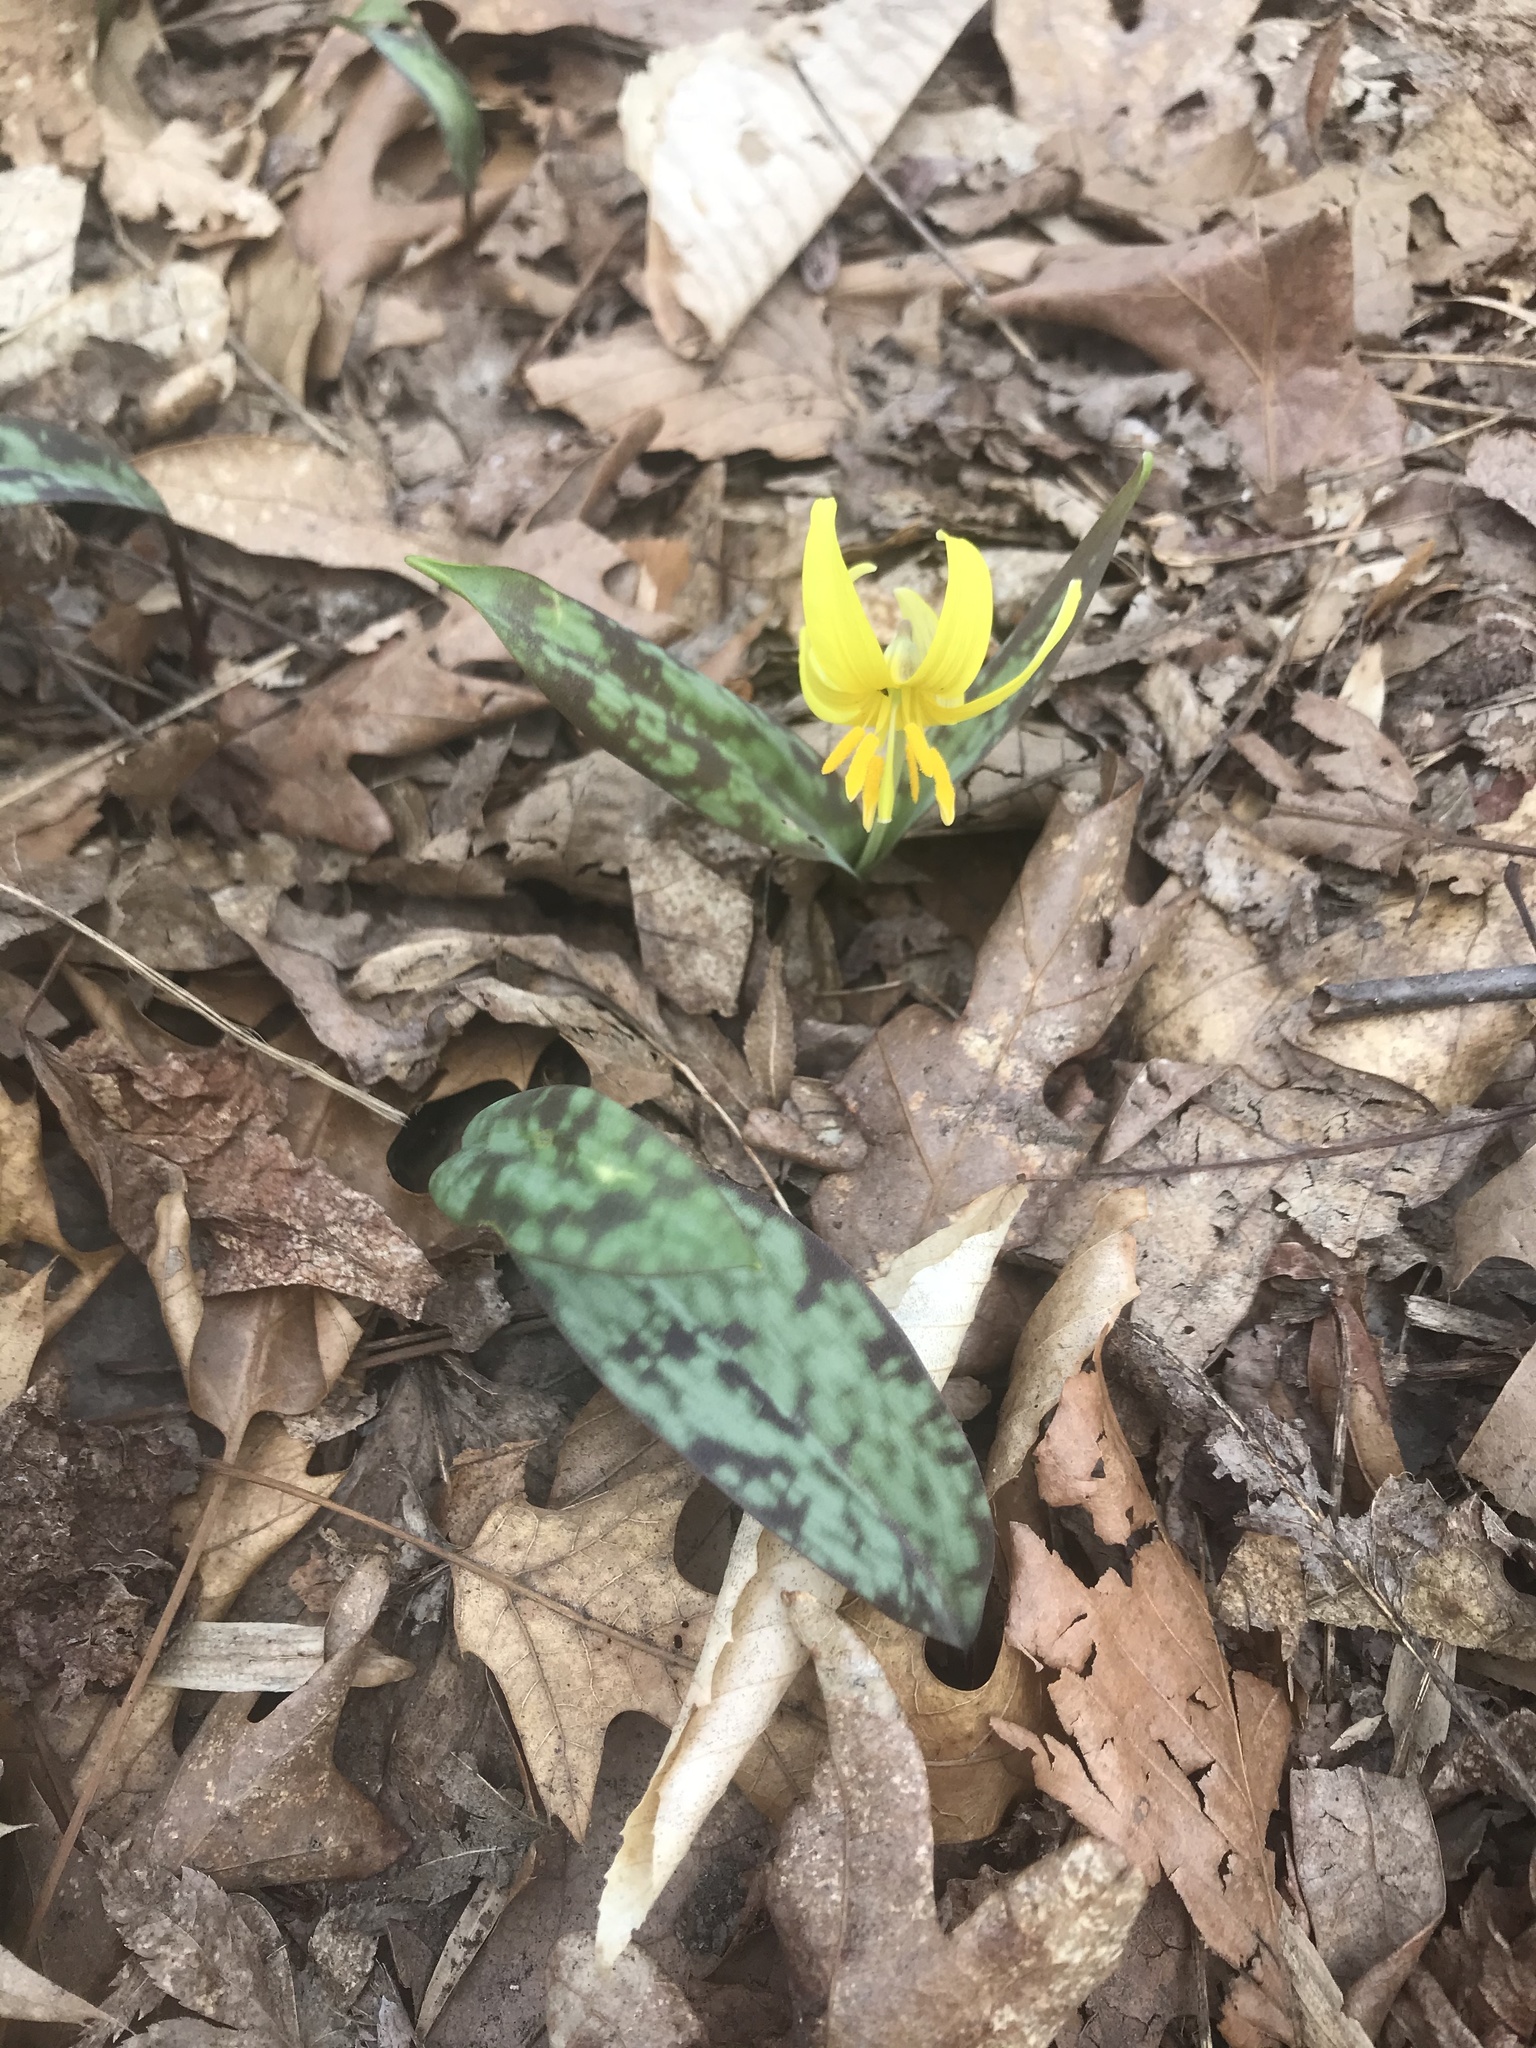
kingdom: Plantae
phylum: Tracheophyta
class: Liliopsida
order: Liliales
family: Liliaceae
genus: Erythronium
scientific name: Erythronium americanum
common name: Yellow adder's-tongue
